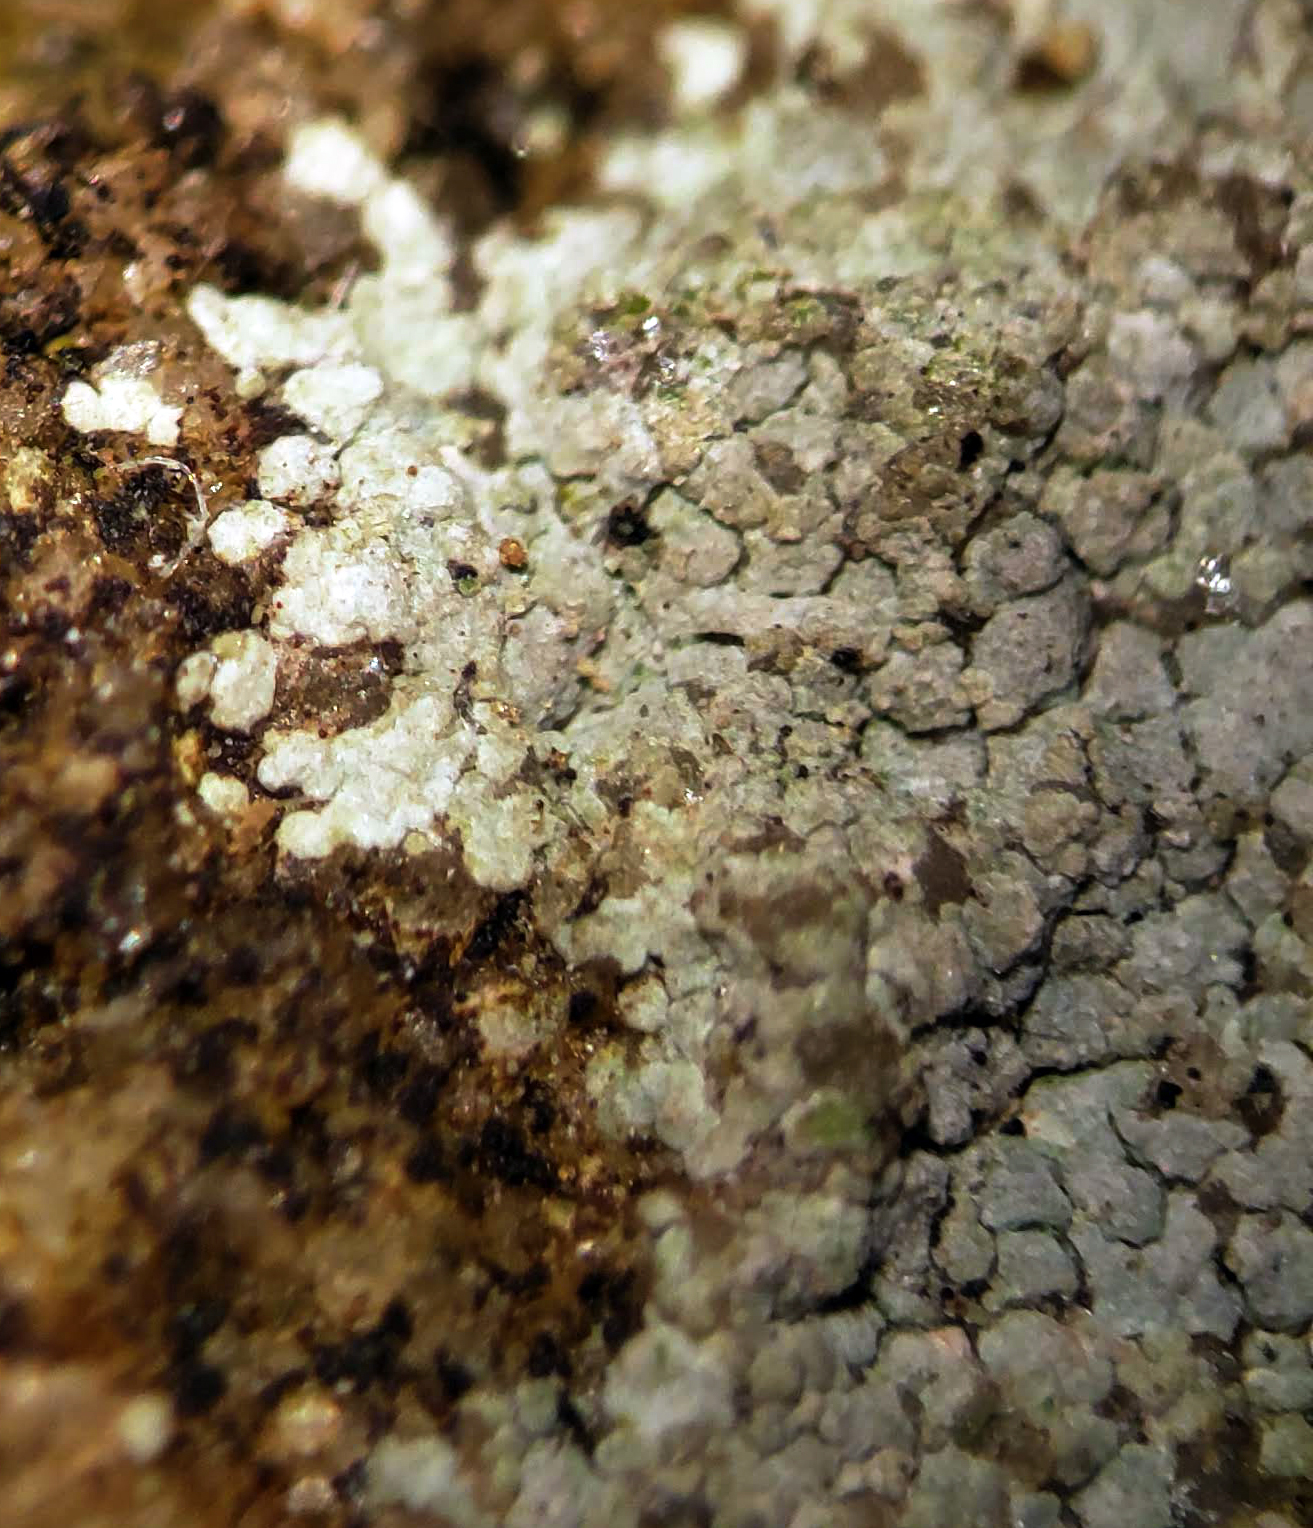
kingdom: Fungi
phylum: Ascomycota
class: Lecanoromycetes
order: Baeomycetales
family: Trapeliaceae
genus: Kleopowiella
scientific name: Kleopowiella placodioides
